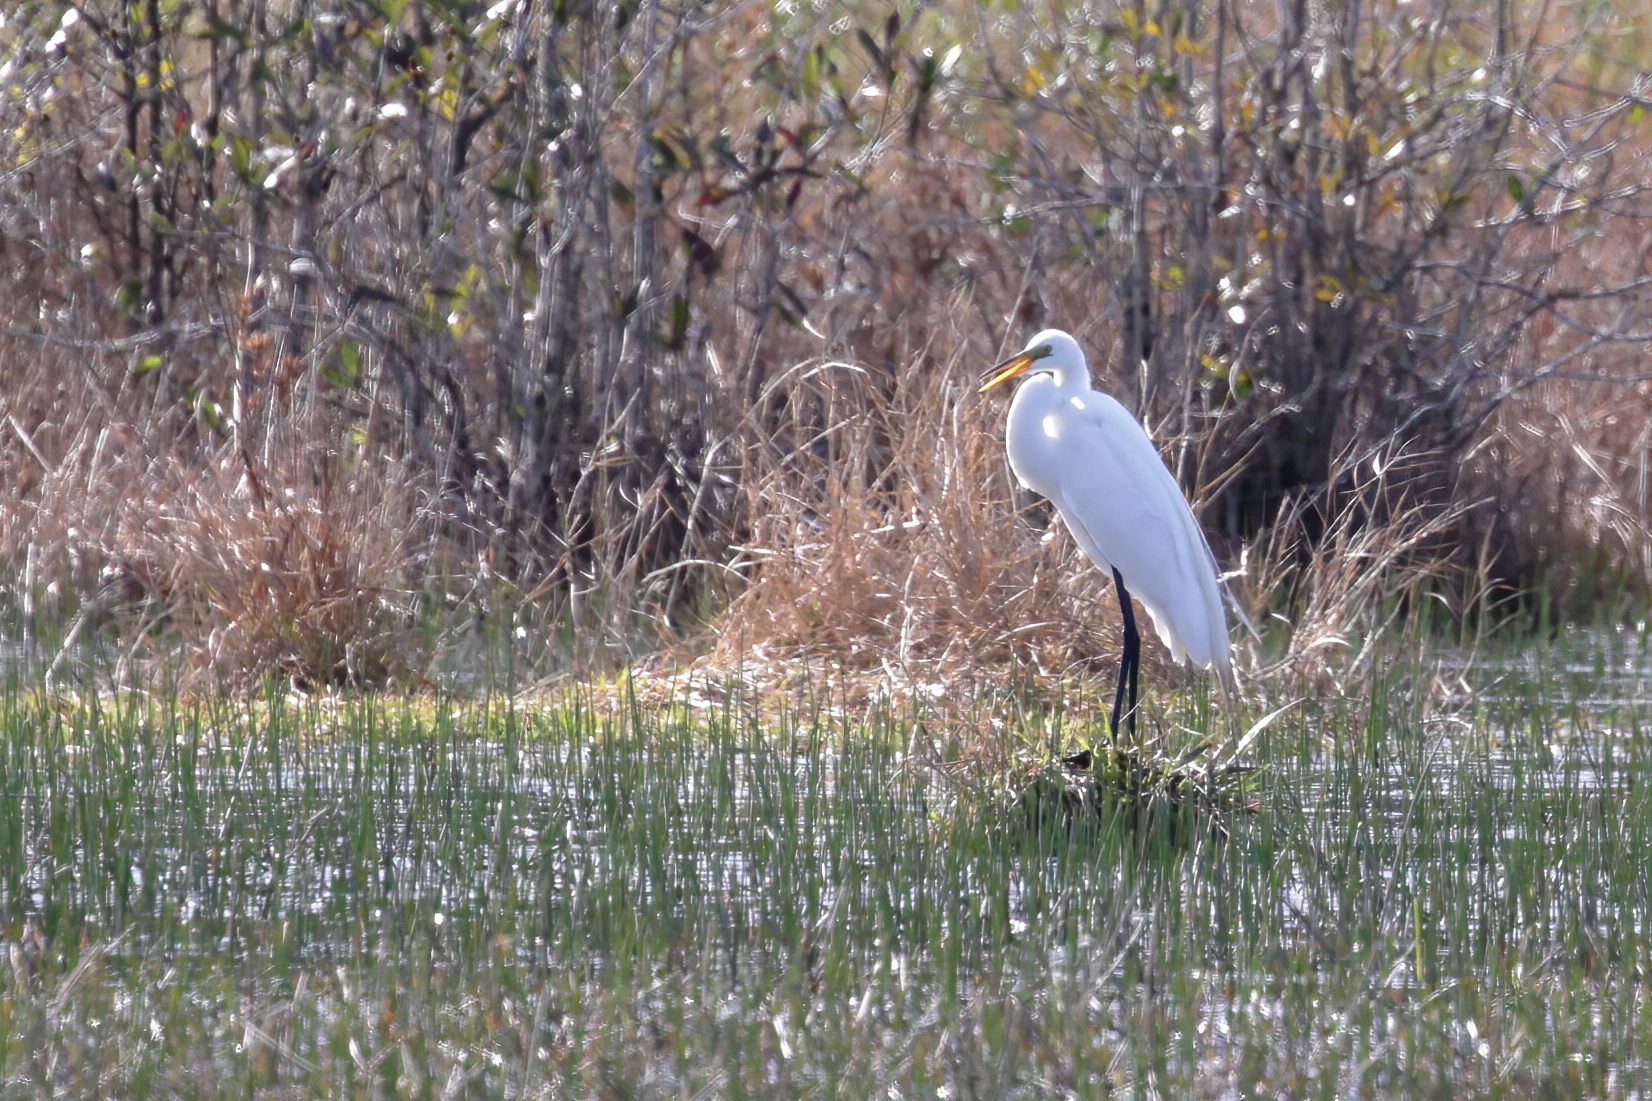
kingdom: Animalia
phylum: Chordata
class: Aves
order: Pelecaniformes
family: Ardeidae
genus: Ardea
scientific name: Ardea alba
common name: Great egret
